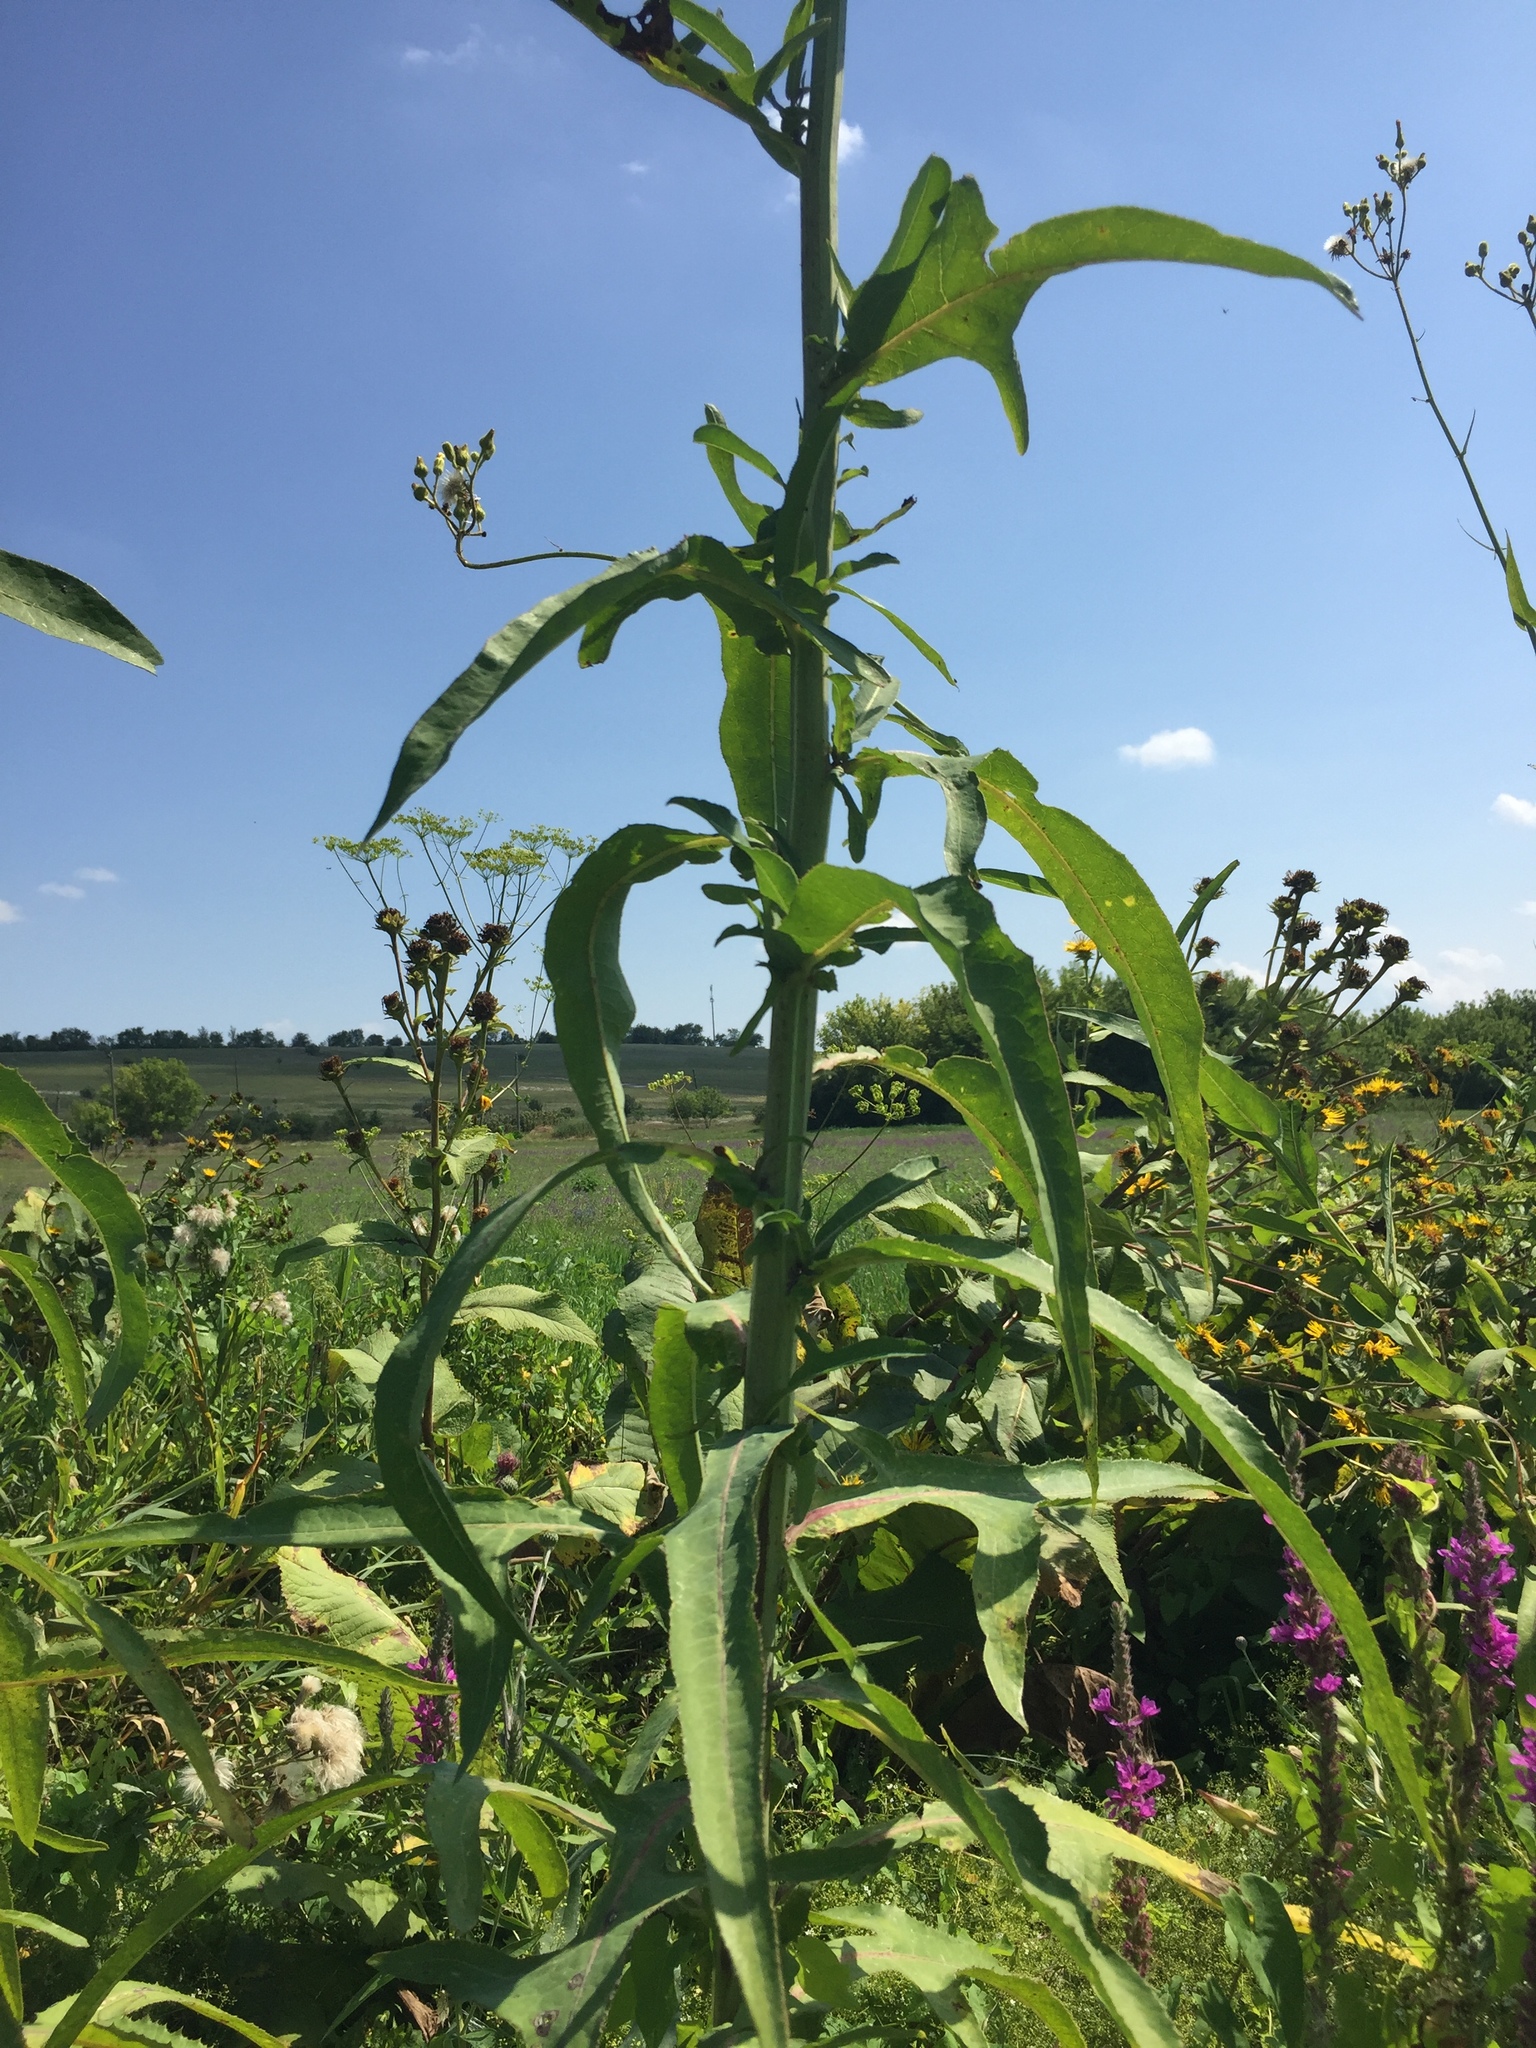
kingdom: Plantae
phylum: Tracheophyta
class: Magnoliopsida
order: Asterales
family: Asteraceae
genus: Sonchus
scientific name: Sonchus palustris
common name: Marsh sow-thistle
